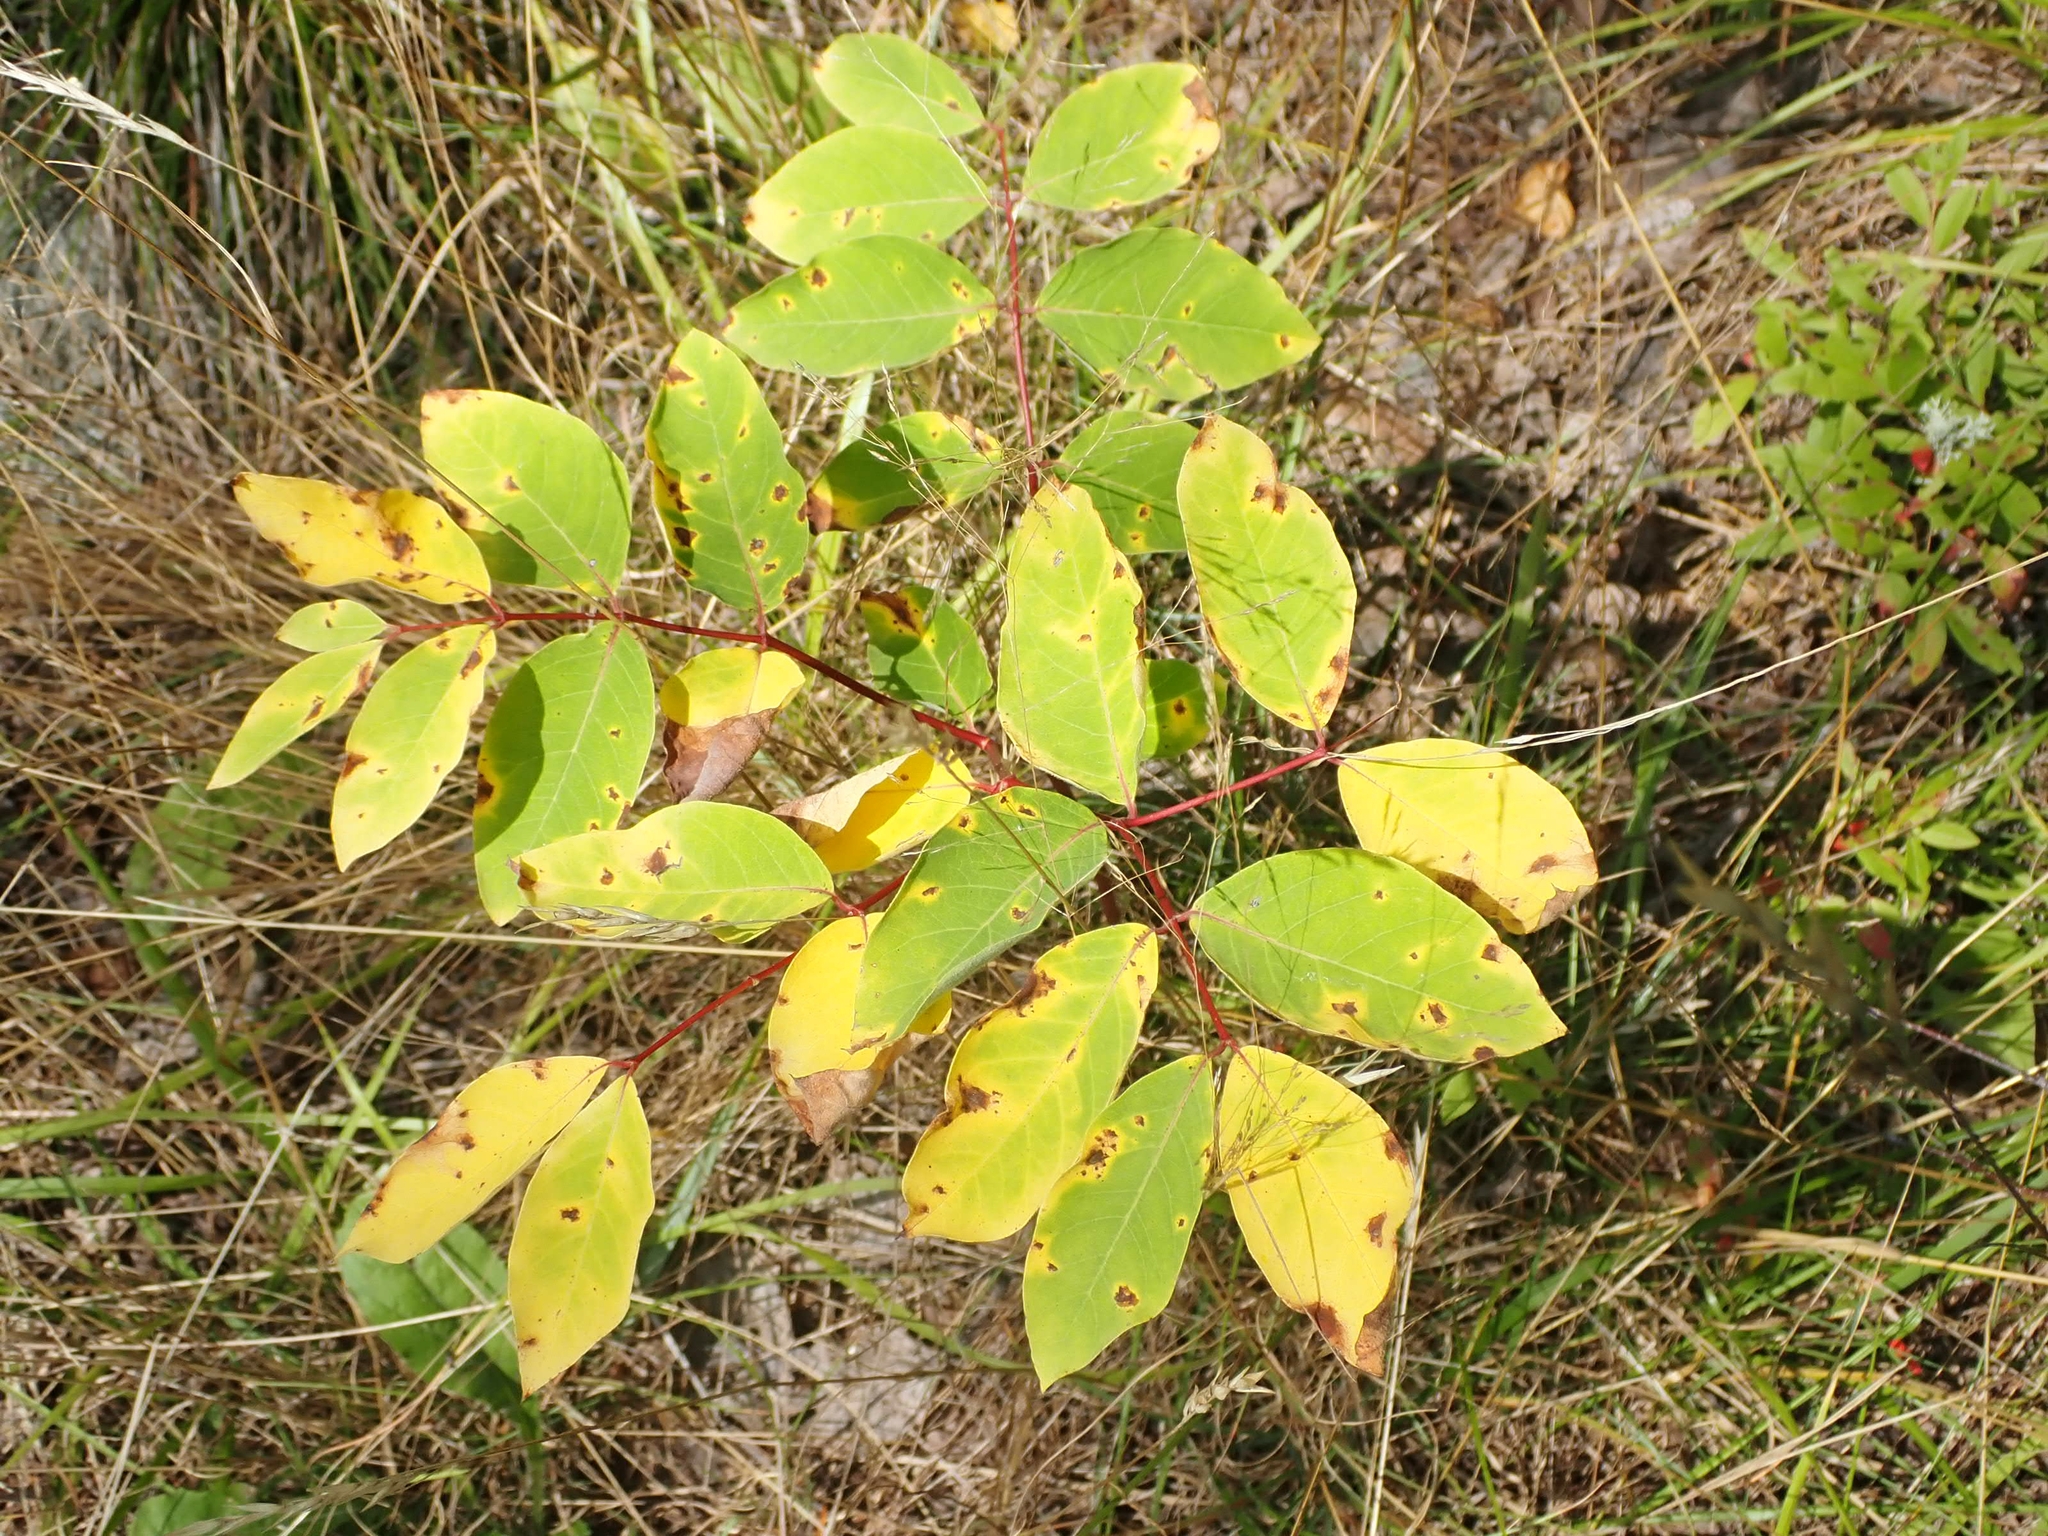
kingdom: Plantae
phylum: Tracheophyta
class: Magnoliopsida
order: Gentianales
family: Apocynaceae
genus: Apocynum
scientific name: Apocynum androsaemifolium
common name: Spreading dogbane
